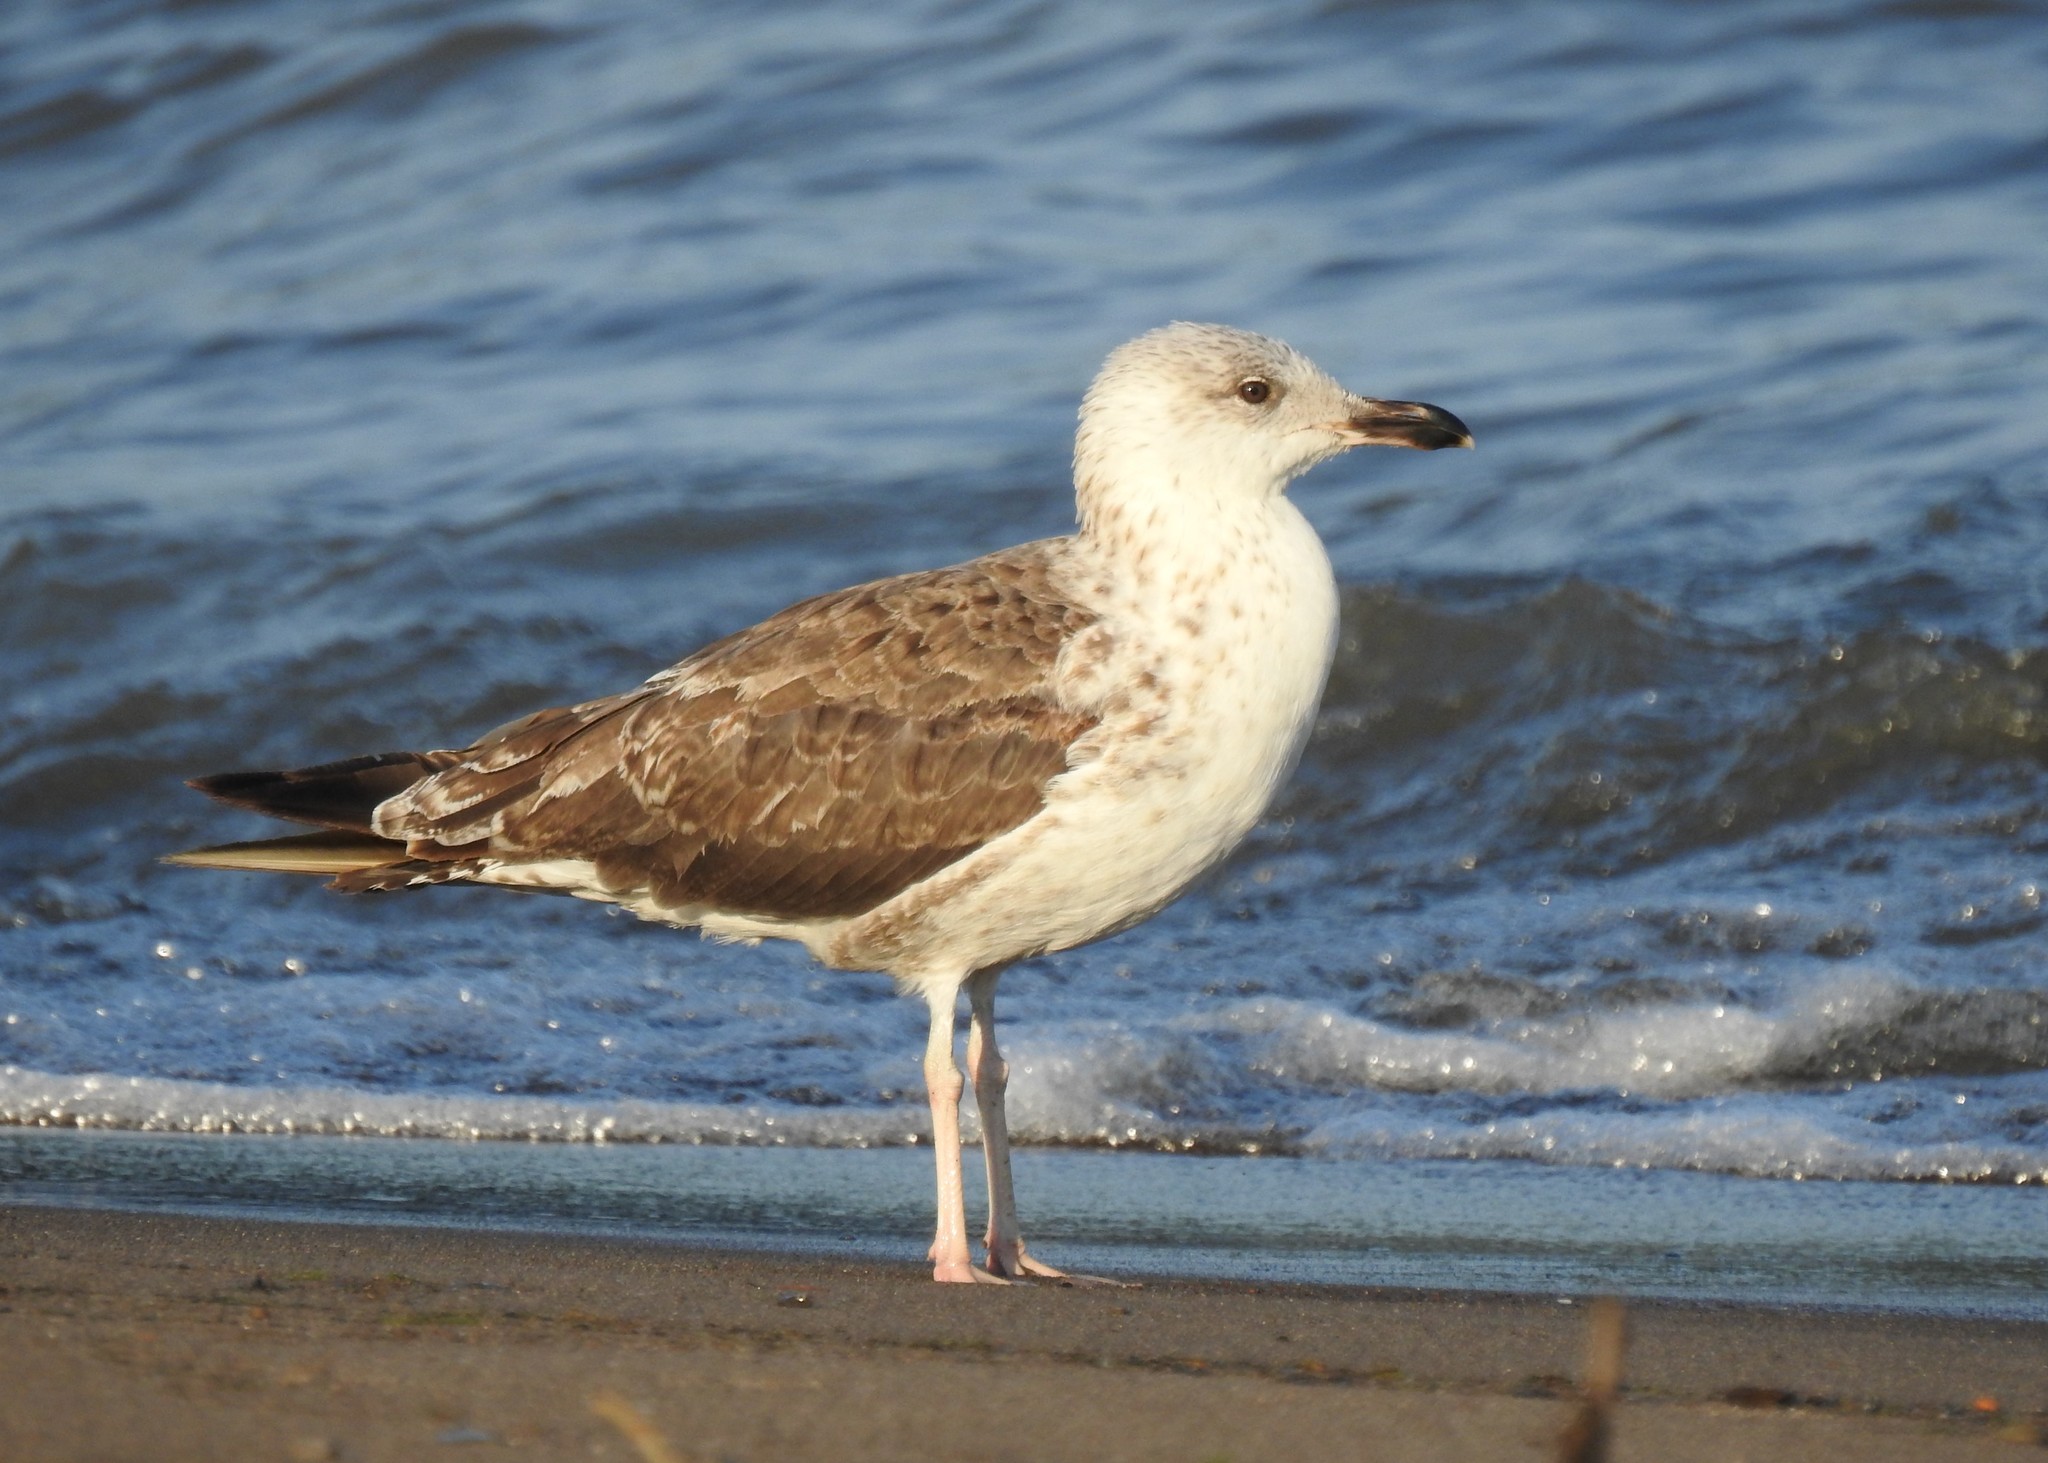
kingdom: Animalia
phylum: Chordata
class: Aves
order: Charadriiformes
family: Laridae
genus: Larus
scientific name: Larus marinus
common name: Great black-backed gull
